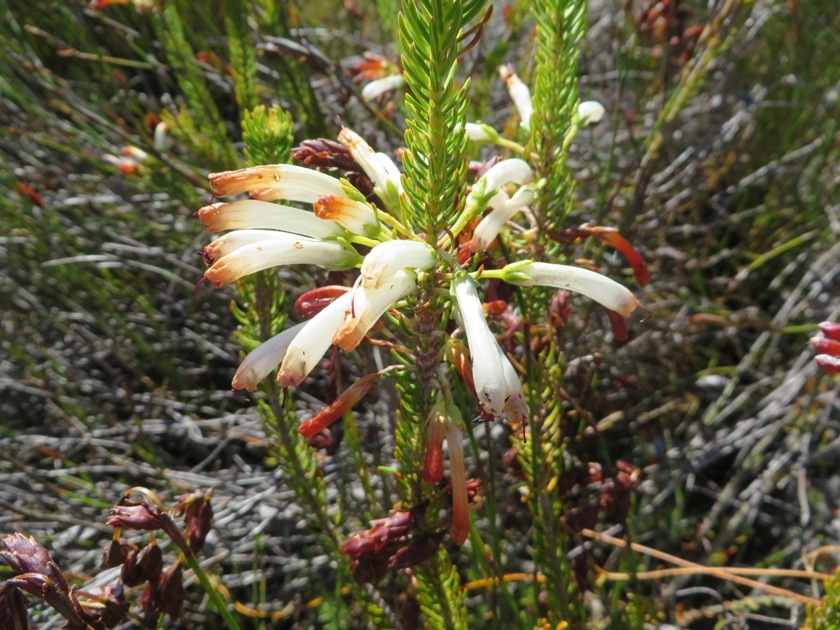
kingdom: Plantae
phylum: Tracheophyta
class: Magnoliopsida
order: Ericales
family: Ericaceae
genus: Erica
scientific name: Erica thomae
